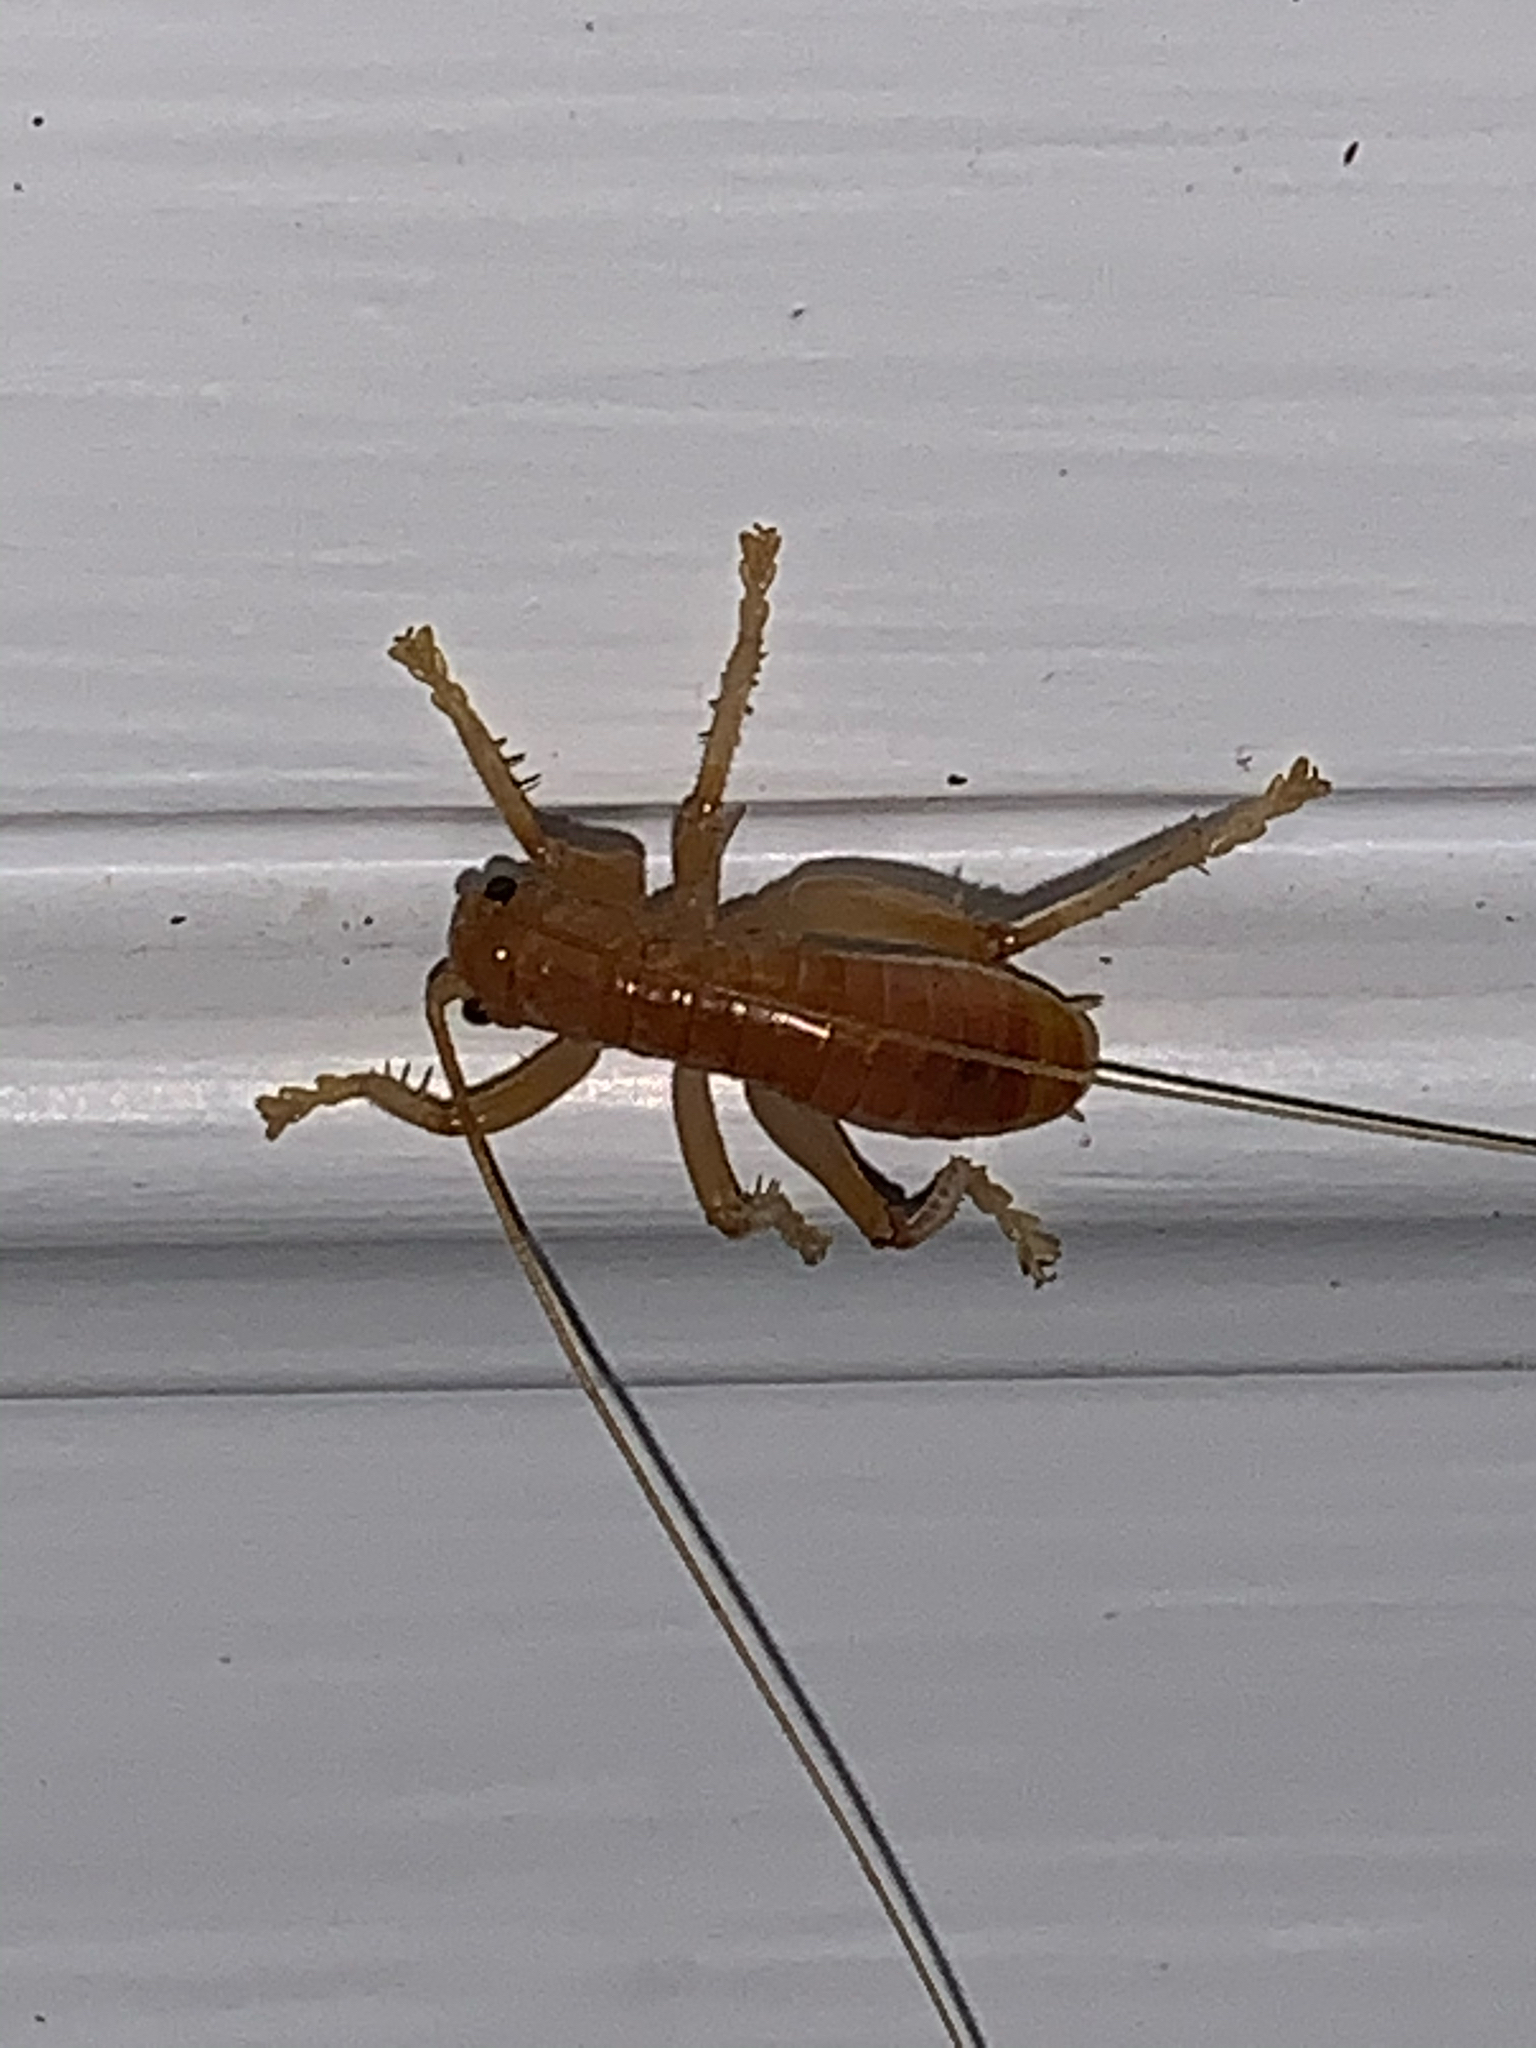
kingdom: Animalia
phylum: Arthropoda
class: Insecta
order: Orthoptera
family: Gryllacrididae
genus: Camptonotus
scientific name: Camptonotus carolinensis
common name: Carolina leaf-roller
